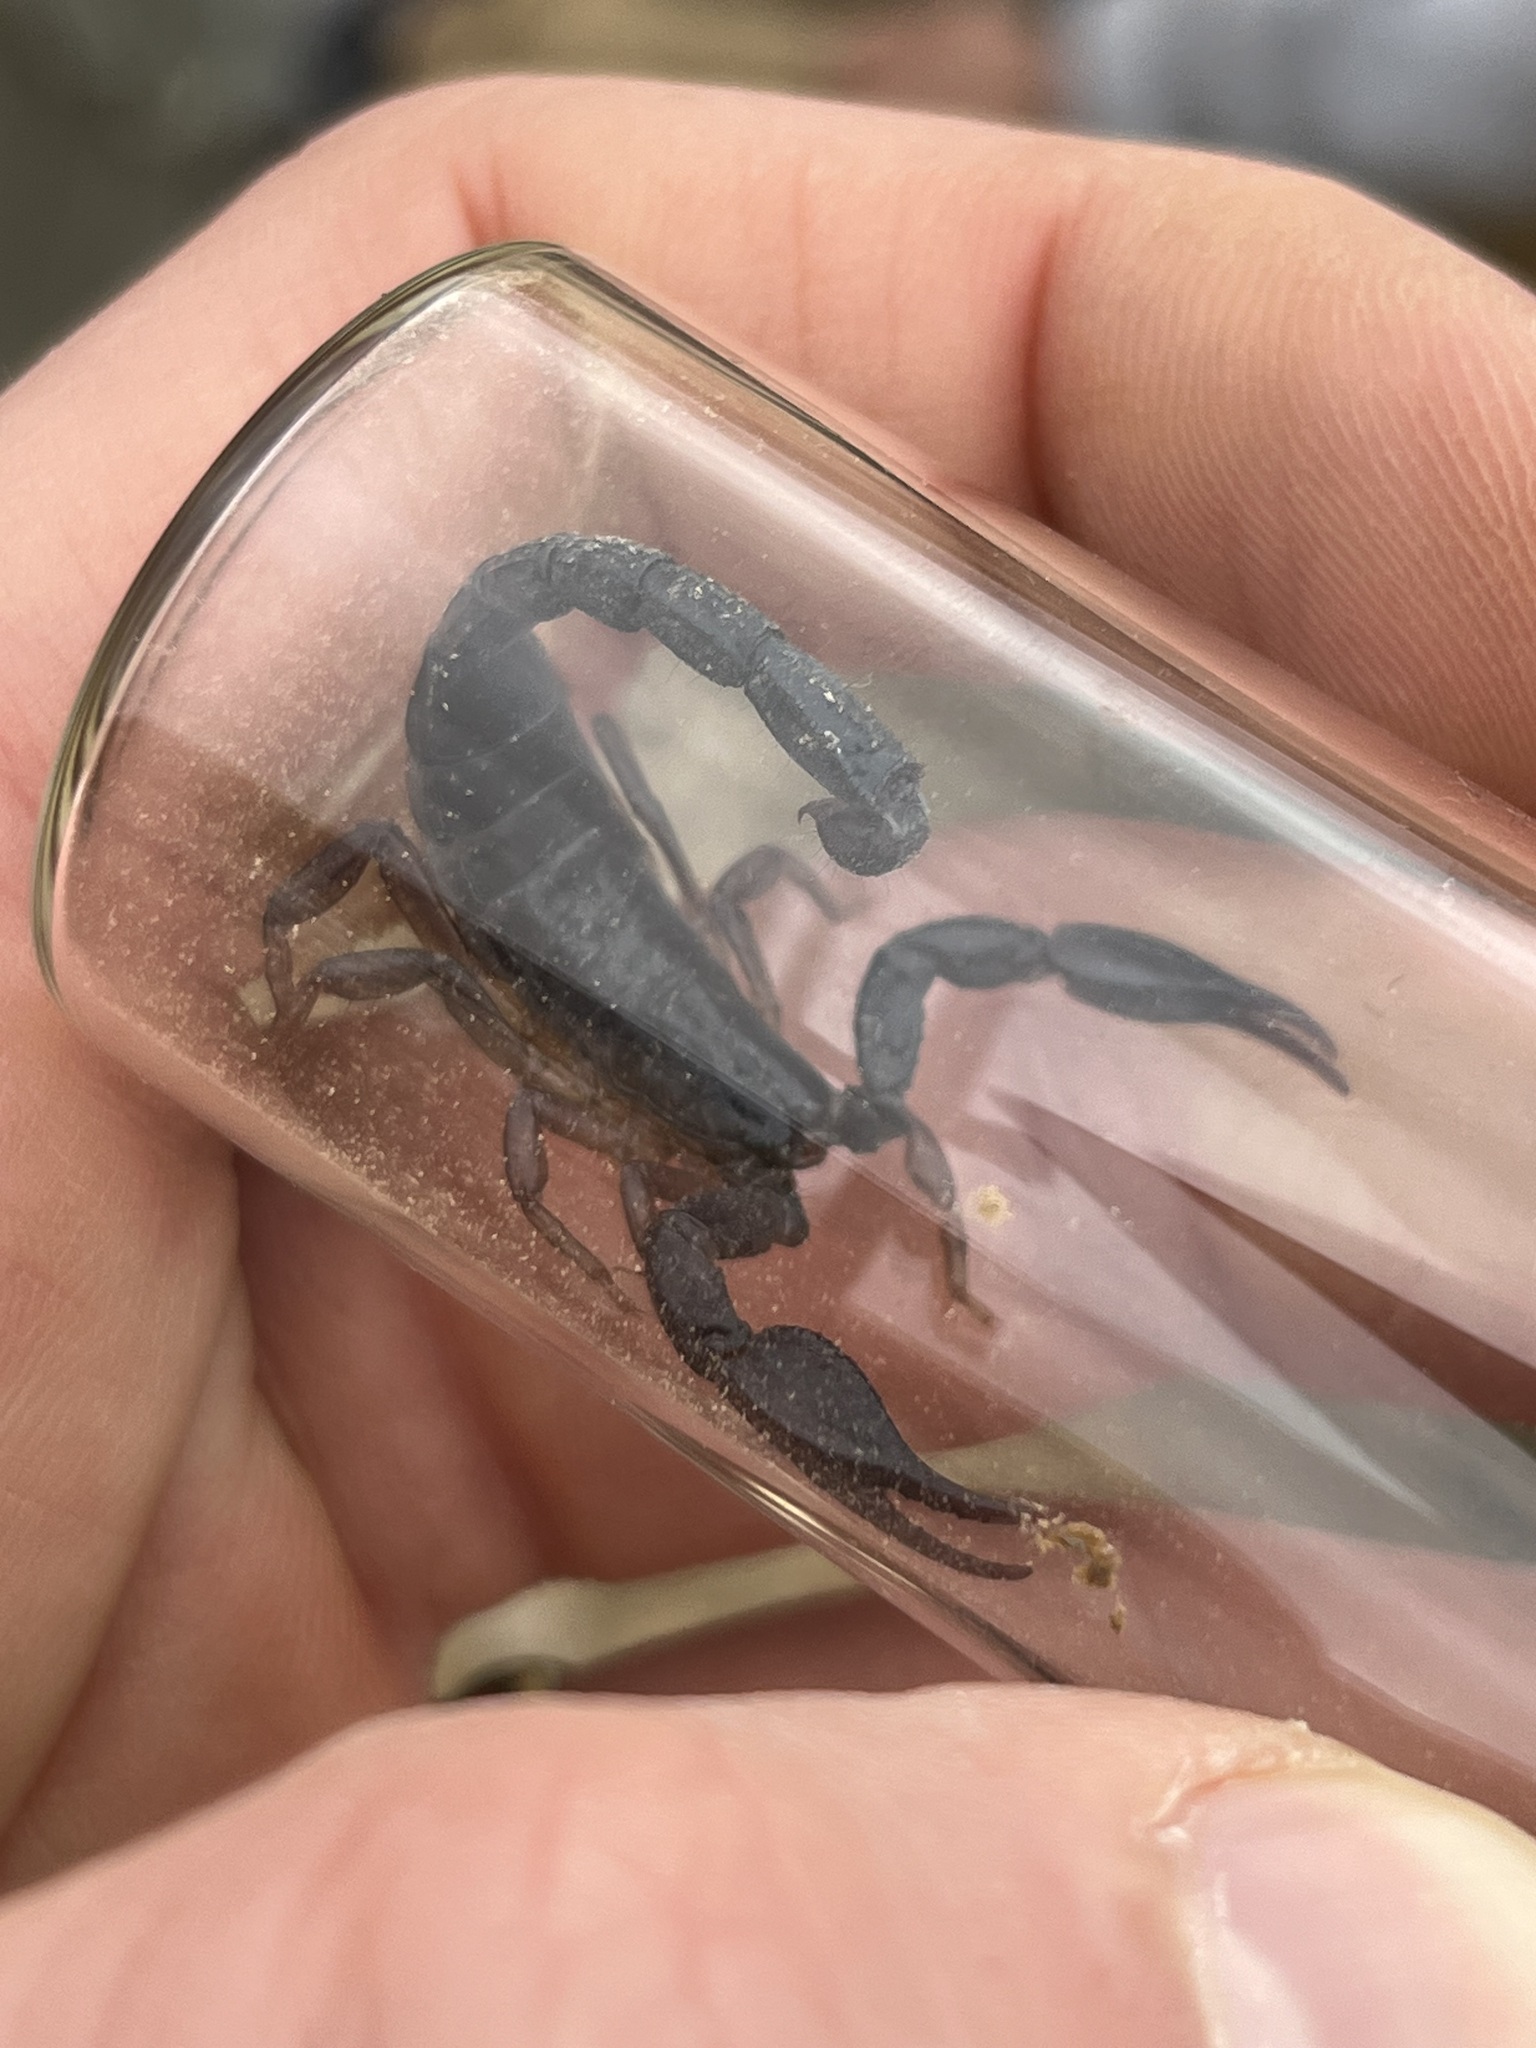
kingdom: Animalia
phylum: Arthropoda
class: Arachnida
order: Scorpiones
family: Diplocentridae
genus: Nebo
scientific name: Nebo hierichonticus
